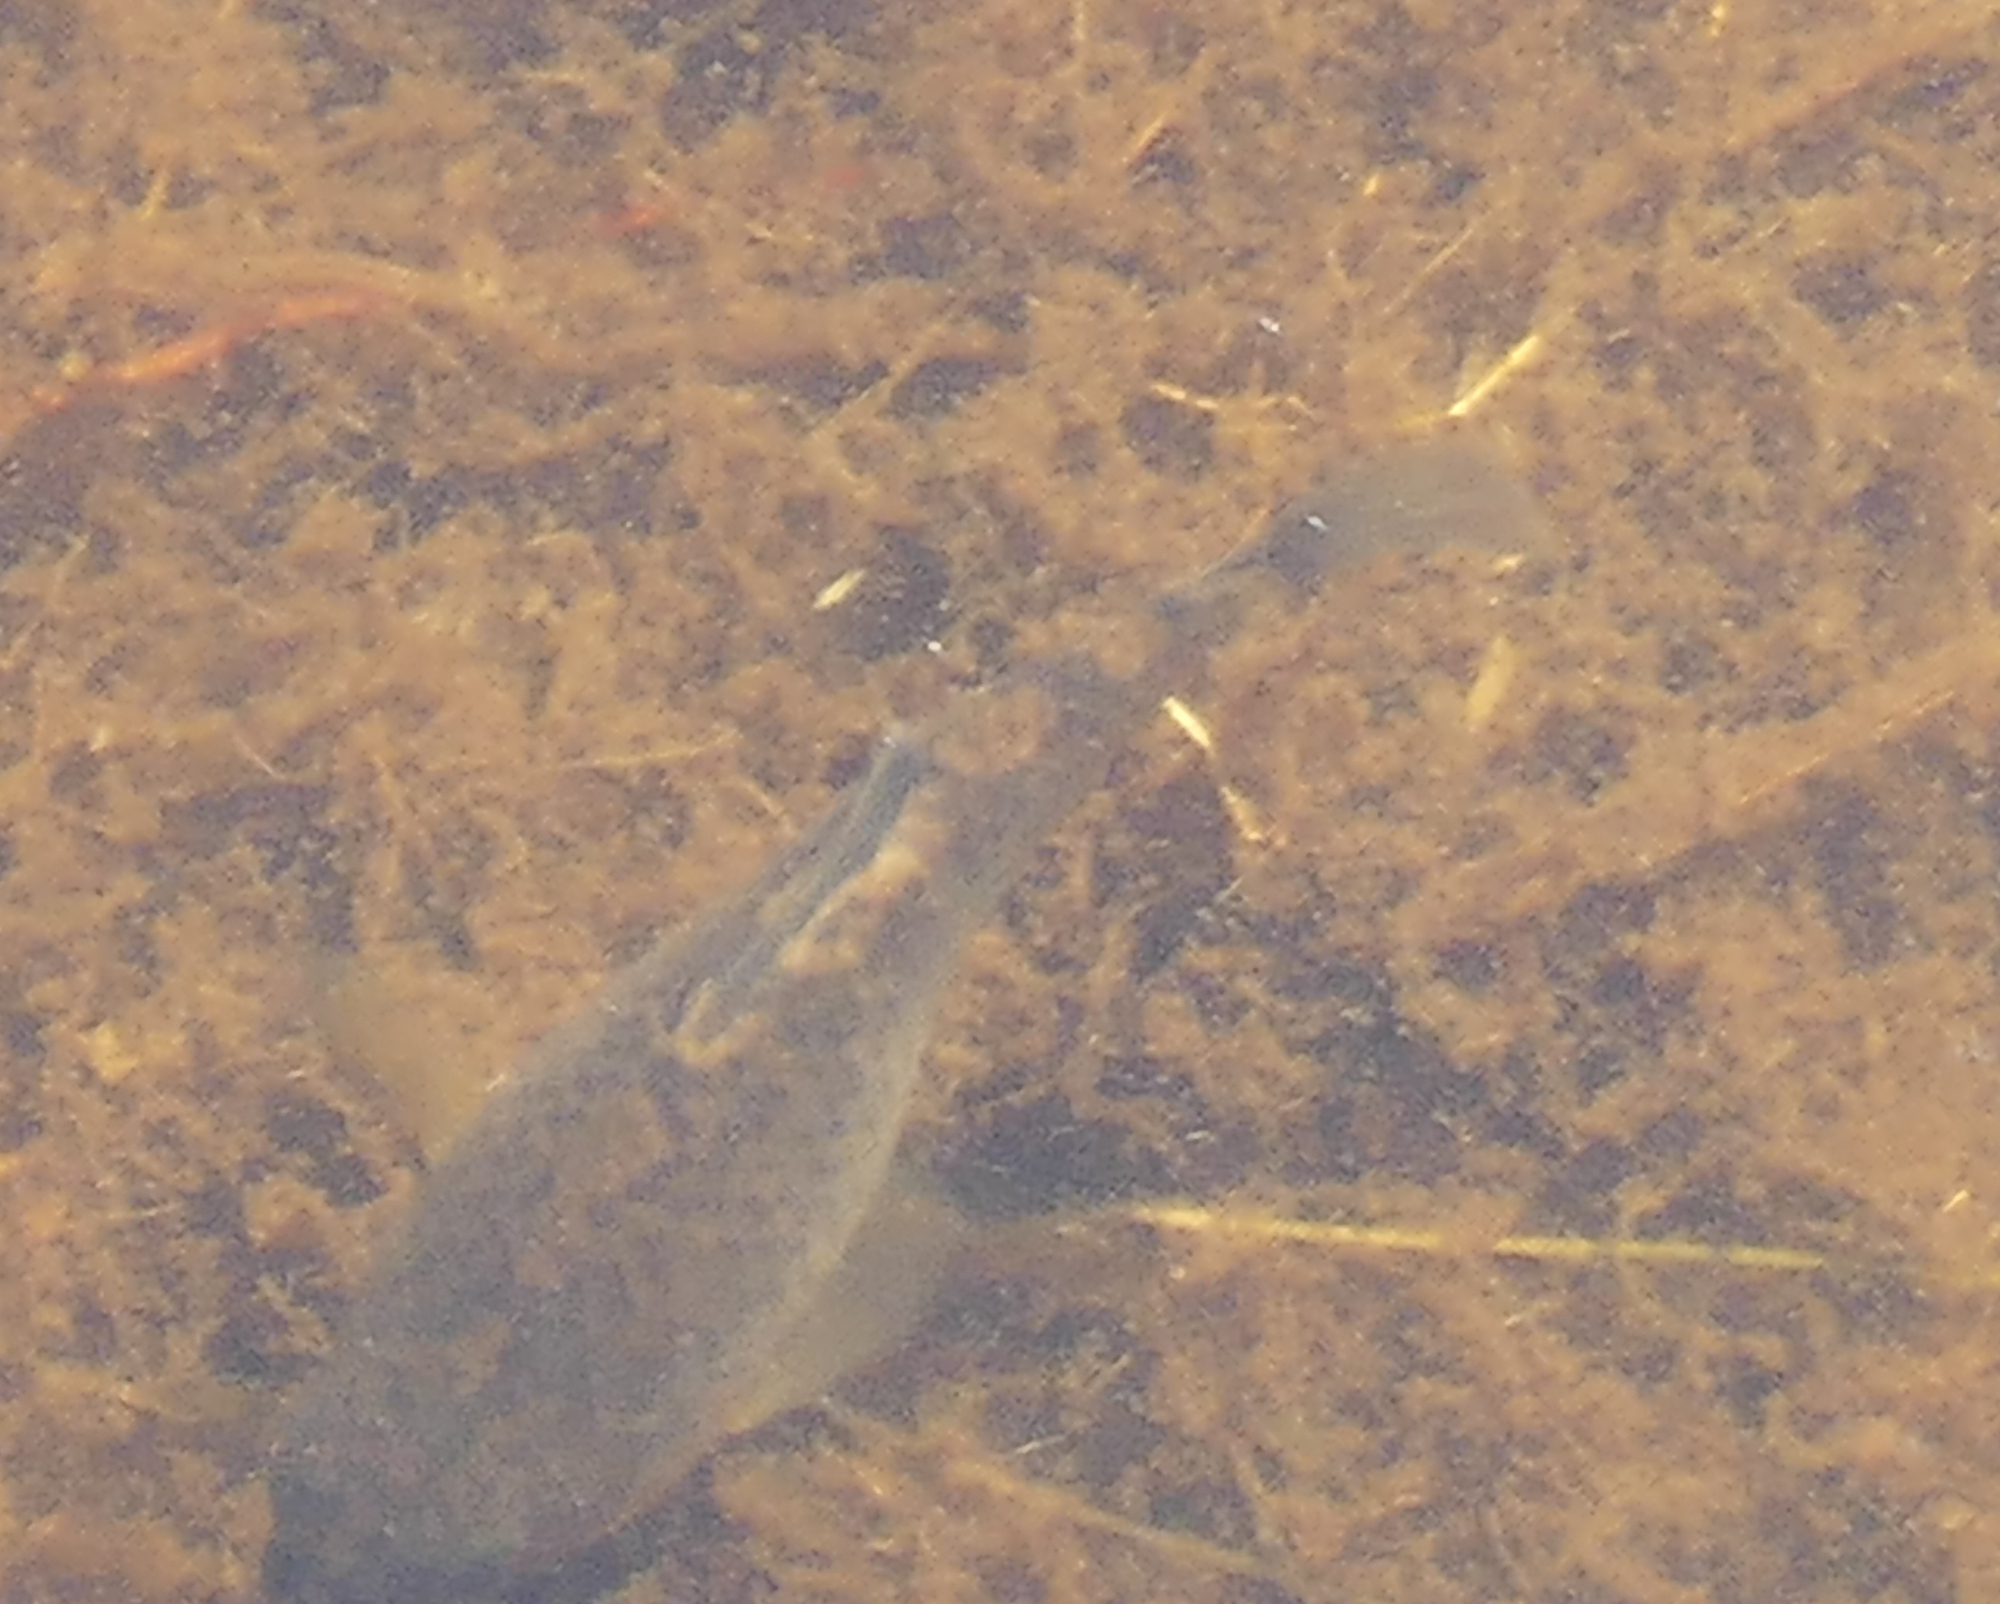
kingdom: Animalia
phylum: Chordata
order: Cyprinodontiformes
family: Cyprinodontidae
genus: Cyprinodon
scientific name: Cyprinodon variegatus
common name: Sheepshead minnow
